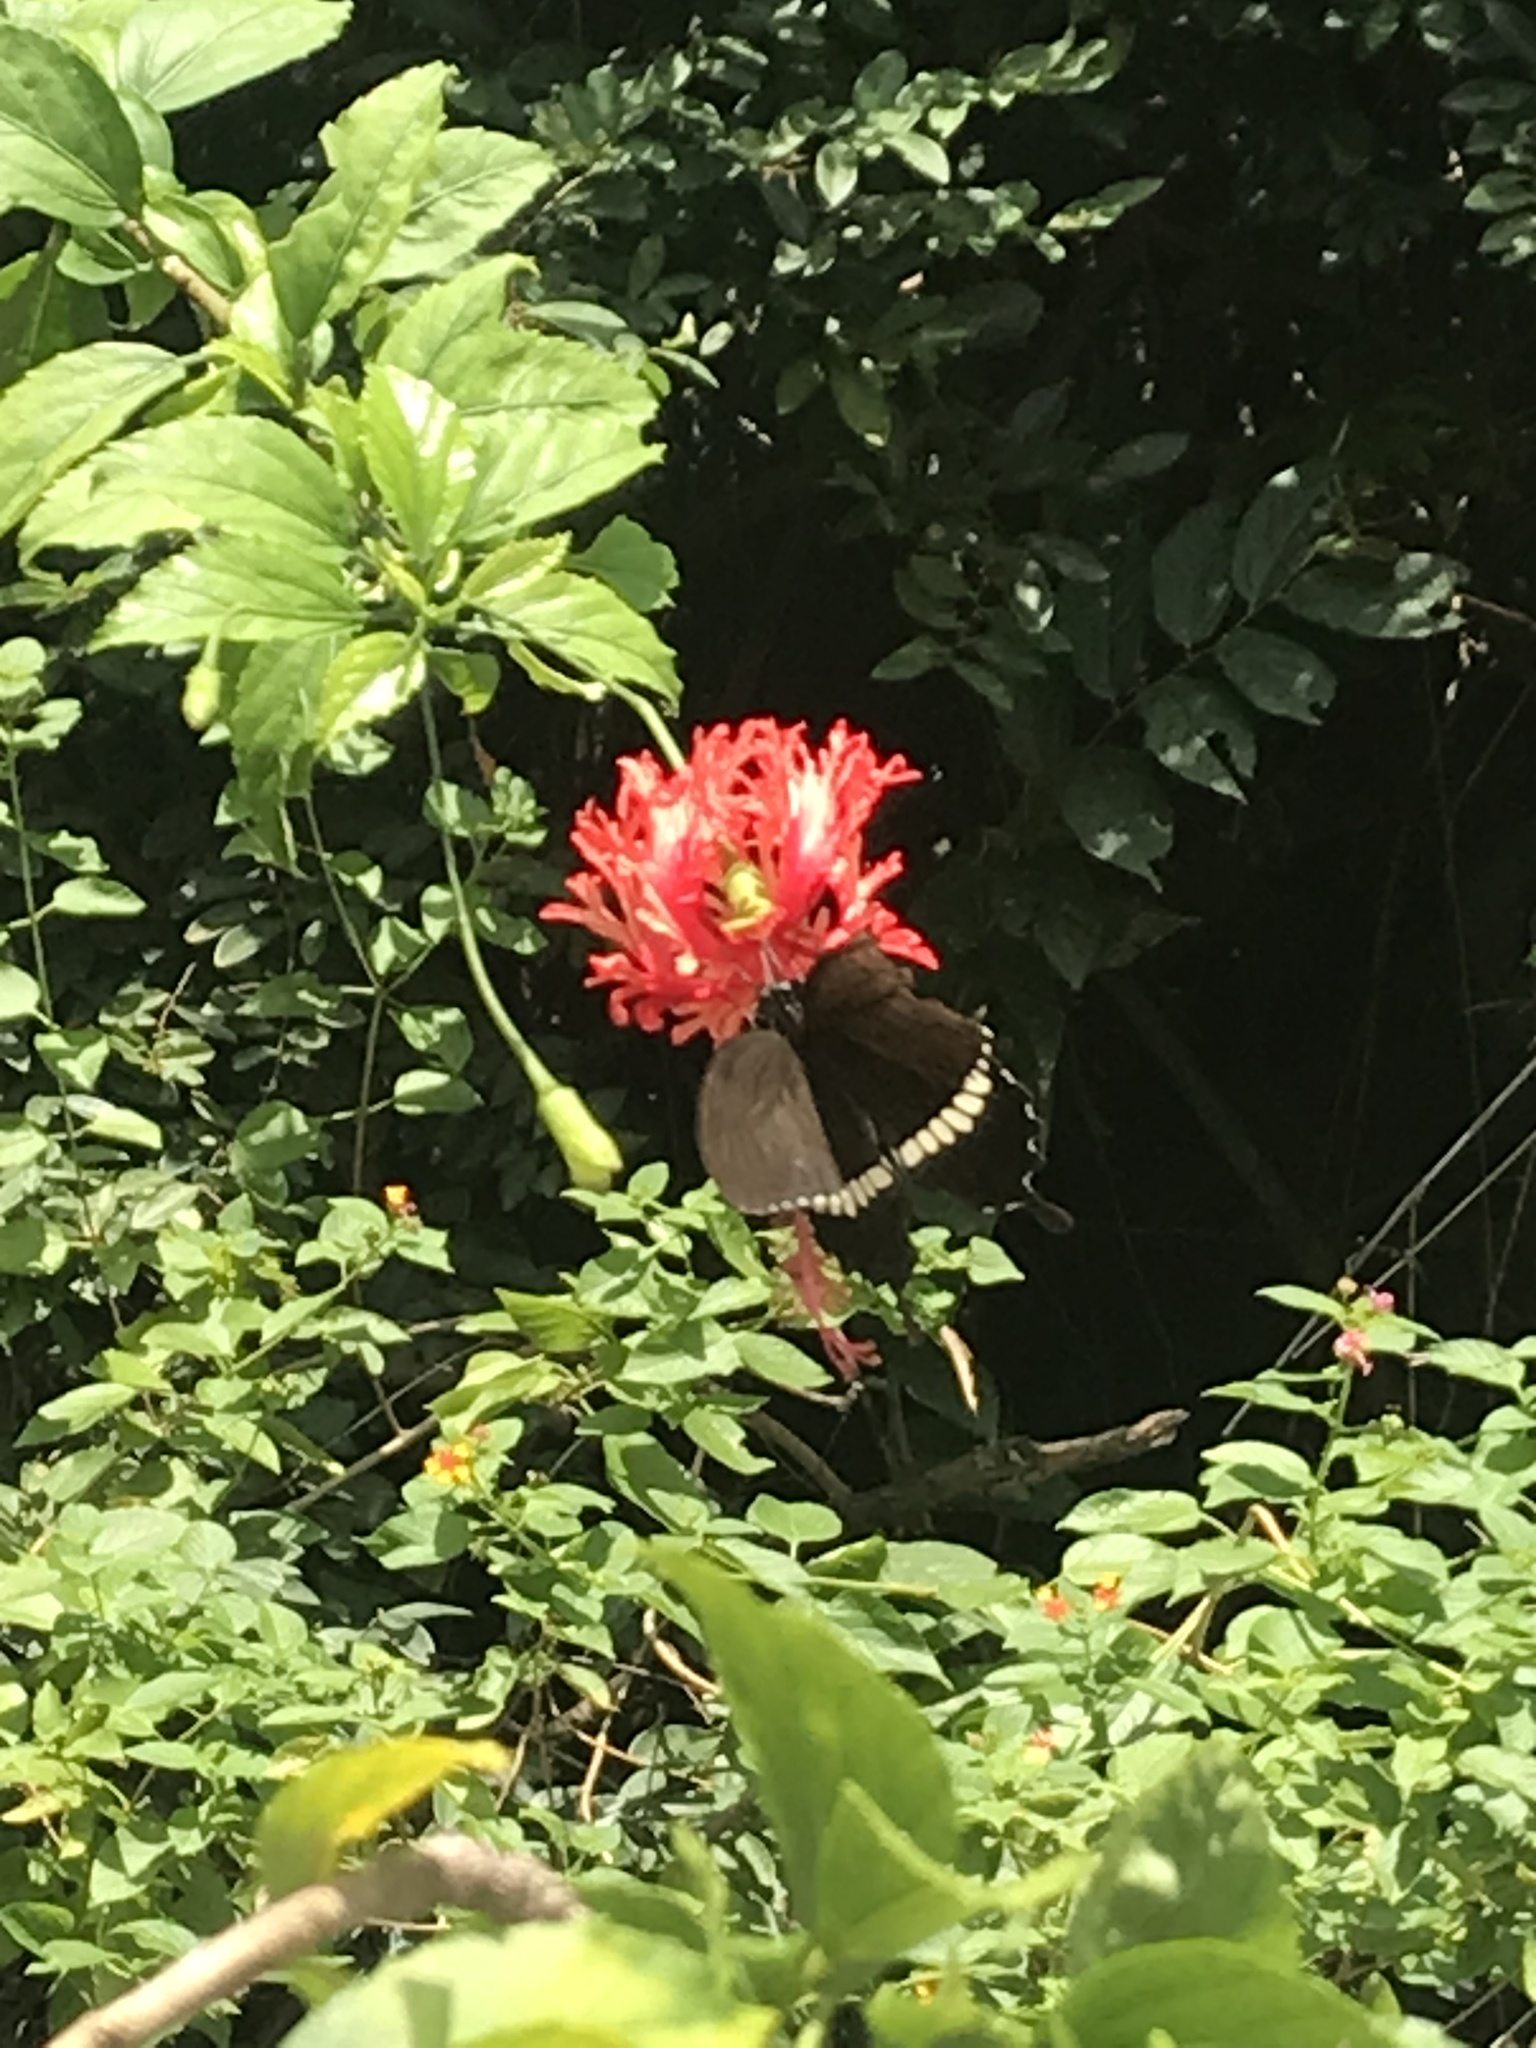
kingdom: Animalia
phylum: Arthropoda
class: Insecta
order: Lepidoptera
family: Papilionidae
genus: Papilio
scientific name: Papilio polytes
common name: Common mormon
